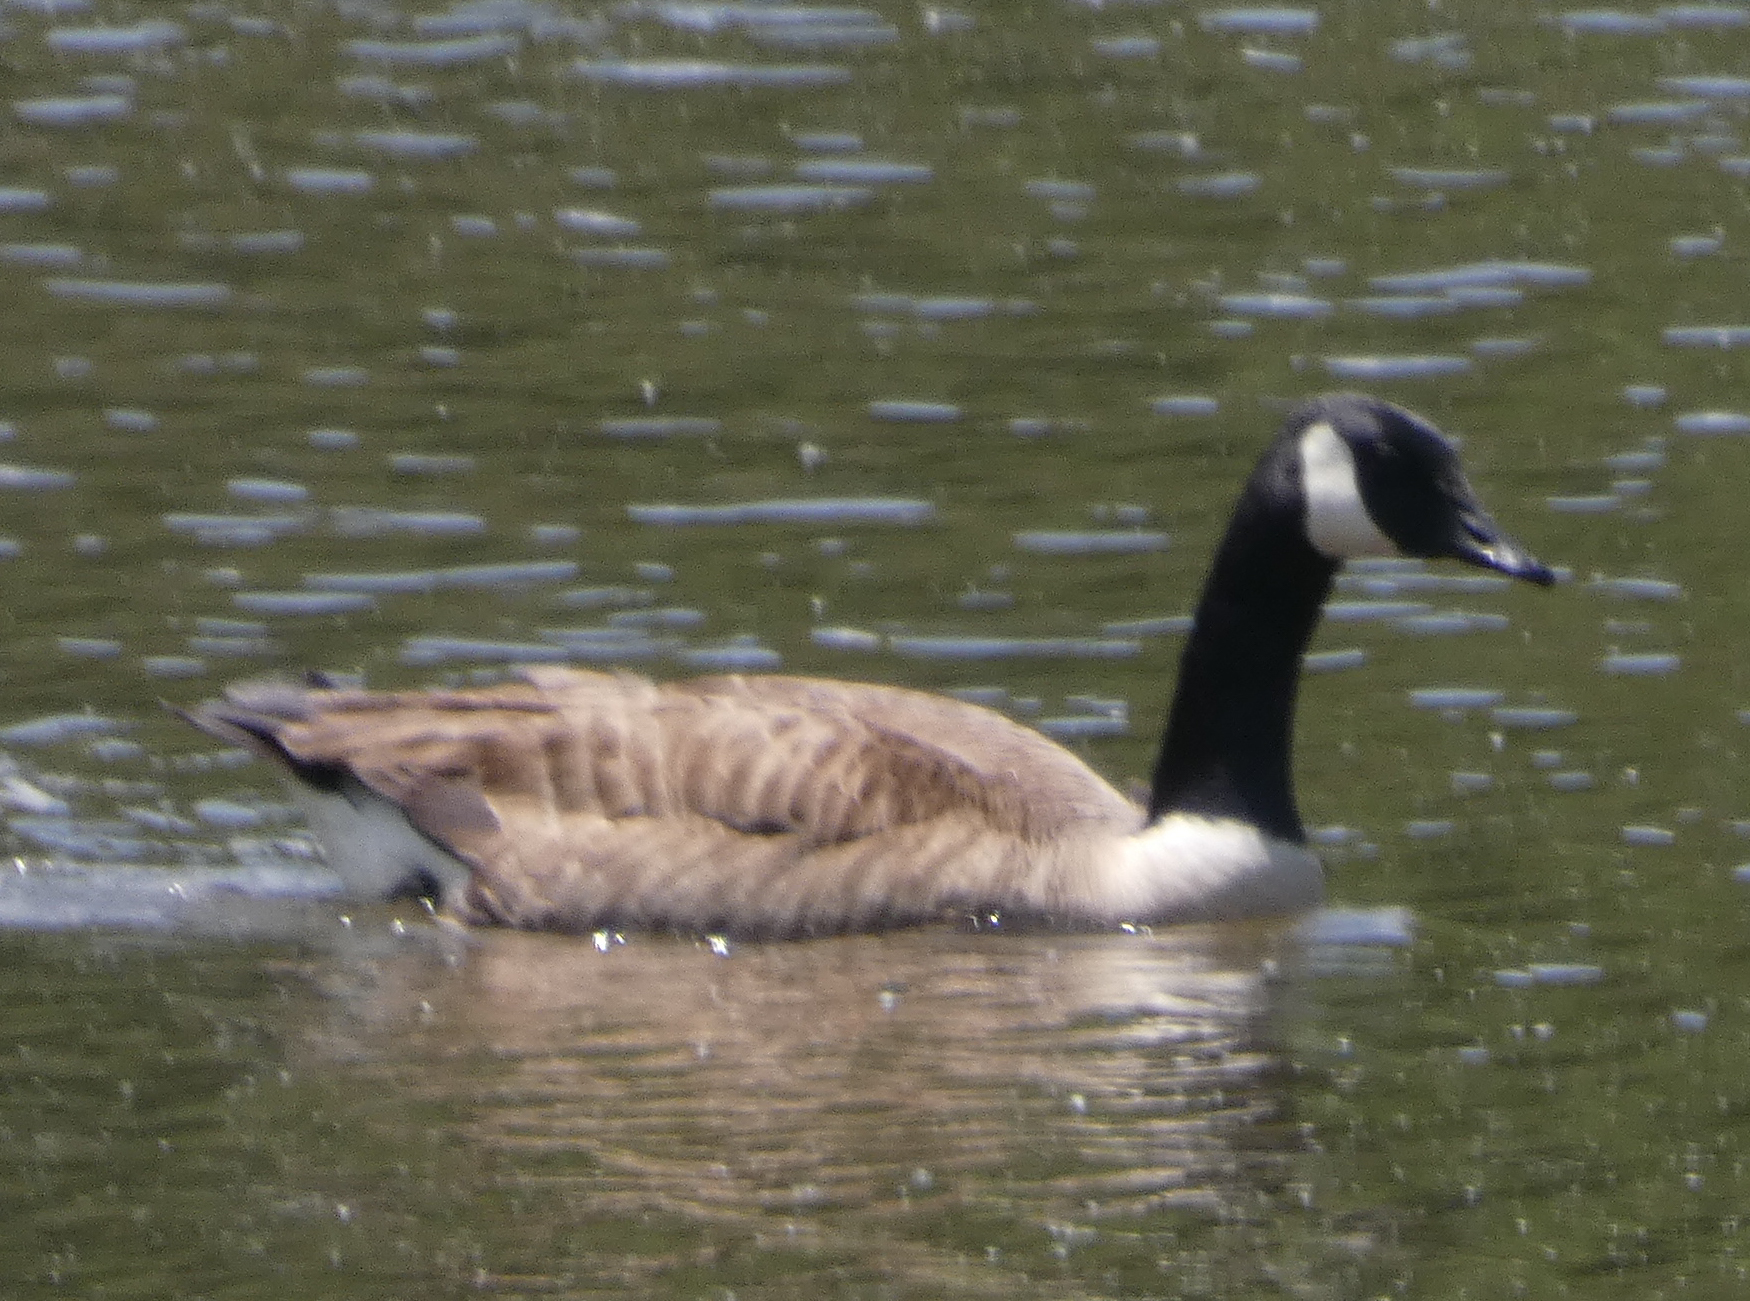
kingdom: Animalia
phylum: Chordata
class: Aves
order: Anseriformes
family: Anatidae
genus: Branta
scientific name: Branta canadensis
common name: Canada goose
